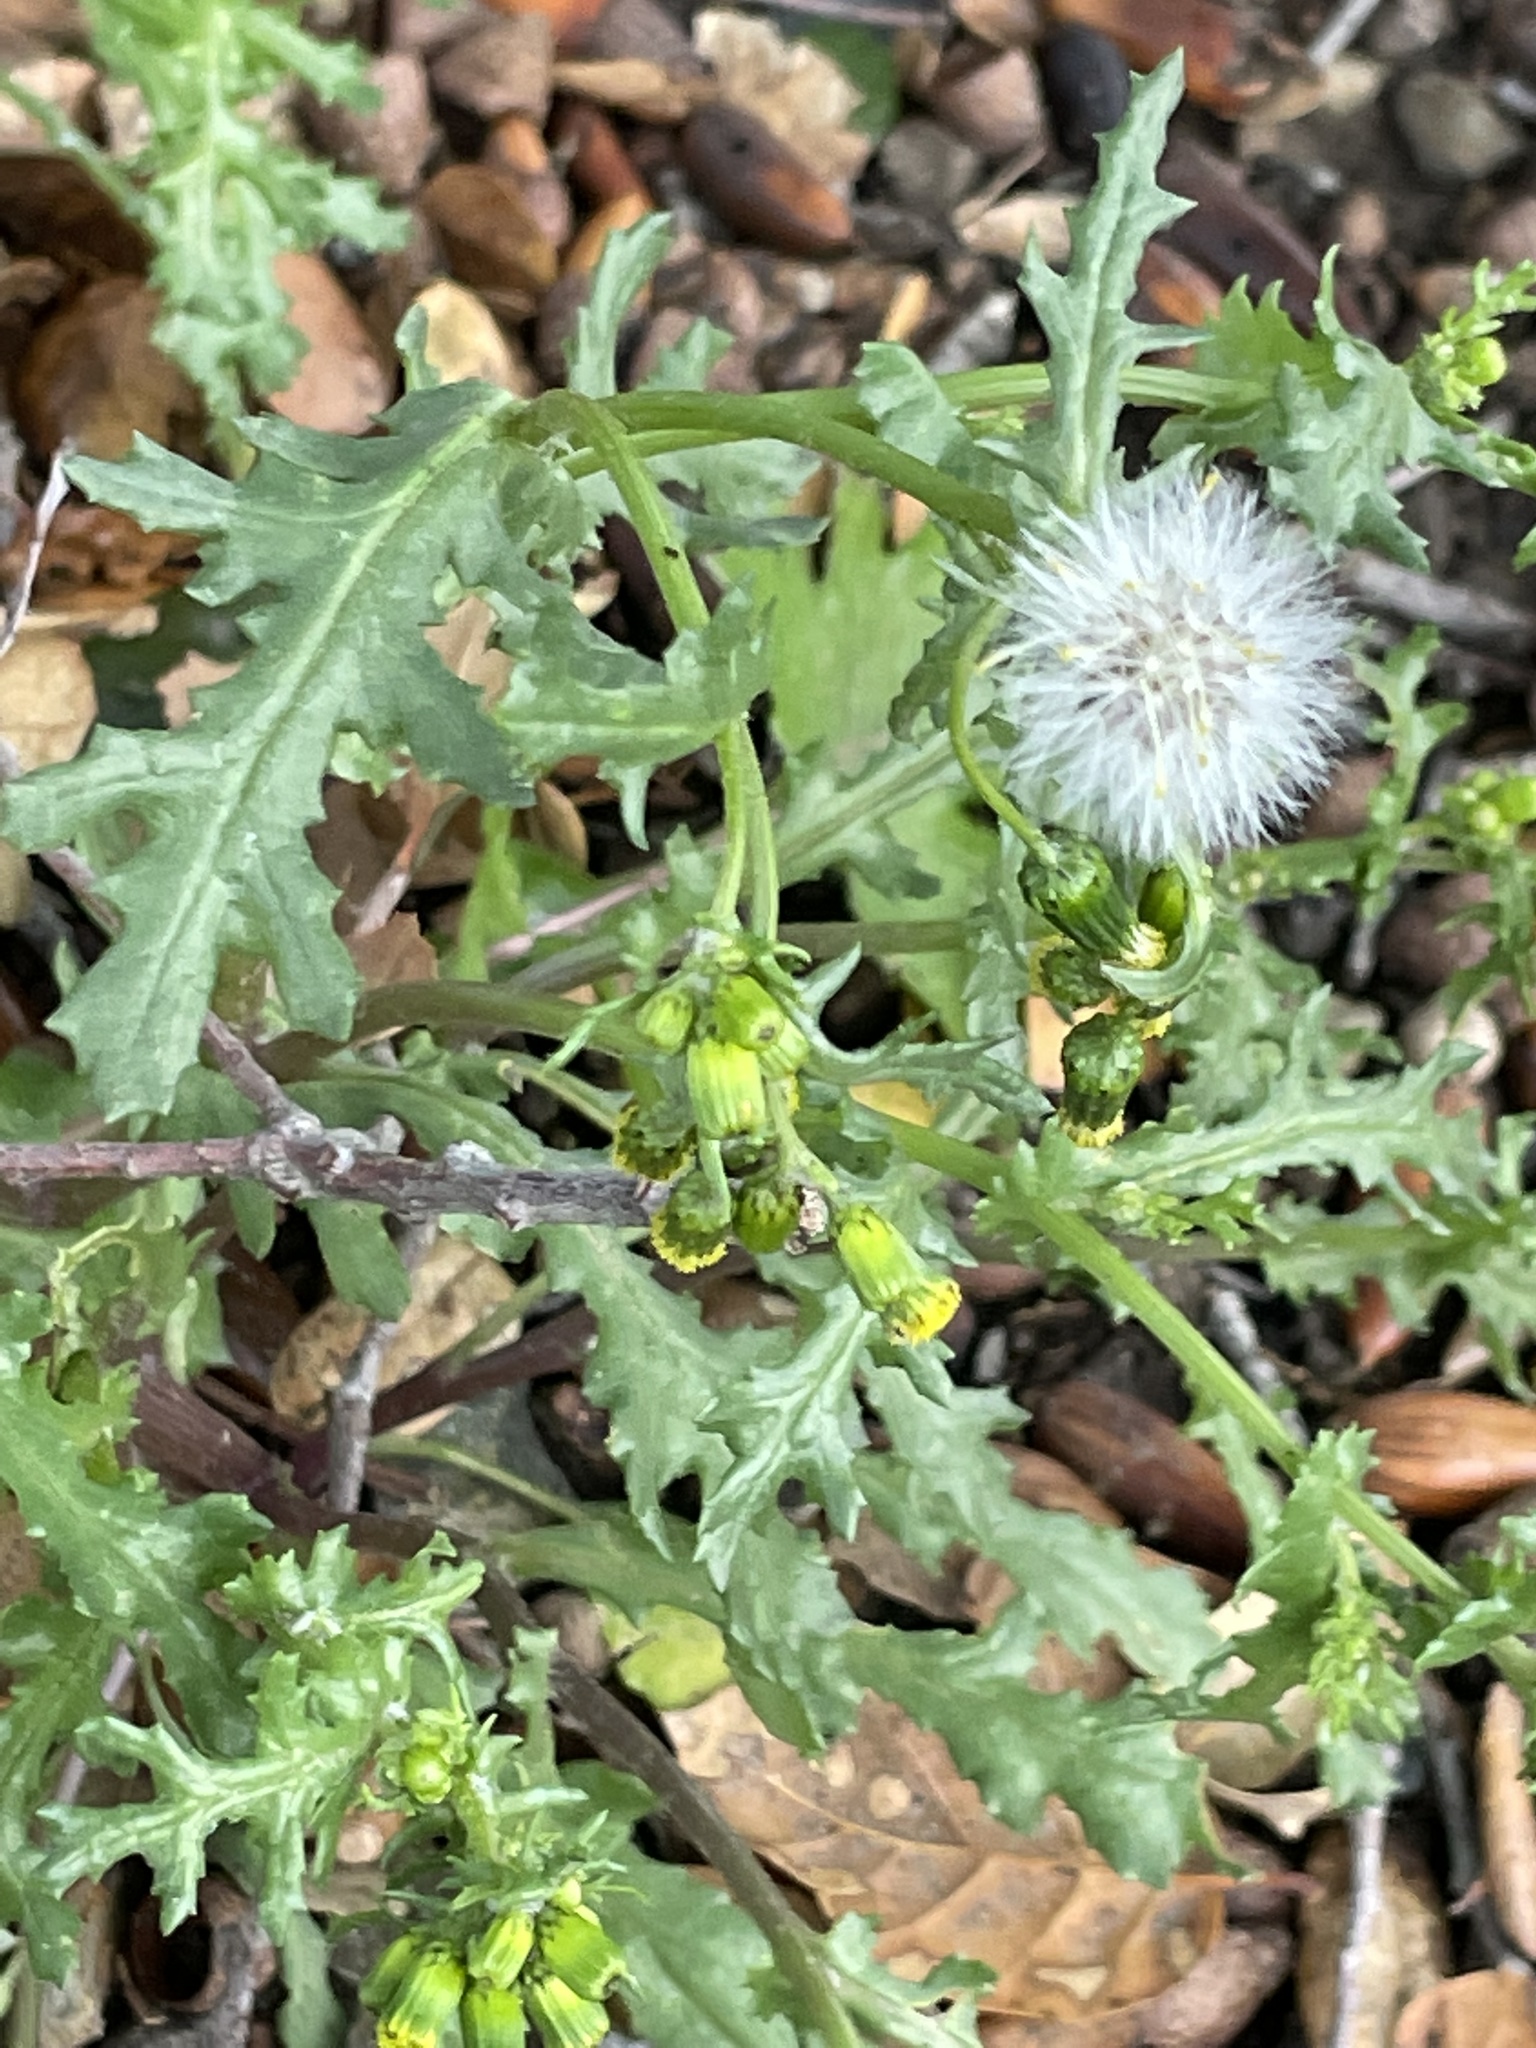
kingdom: Plantae
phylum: Tracheophyta
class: Magnoliopsida
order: Asterales
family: Asteraceae
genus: Senecio
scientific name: Senecio vulgaris
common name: Old-man-in-the-spring
